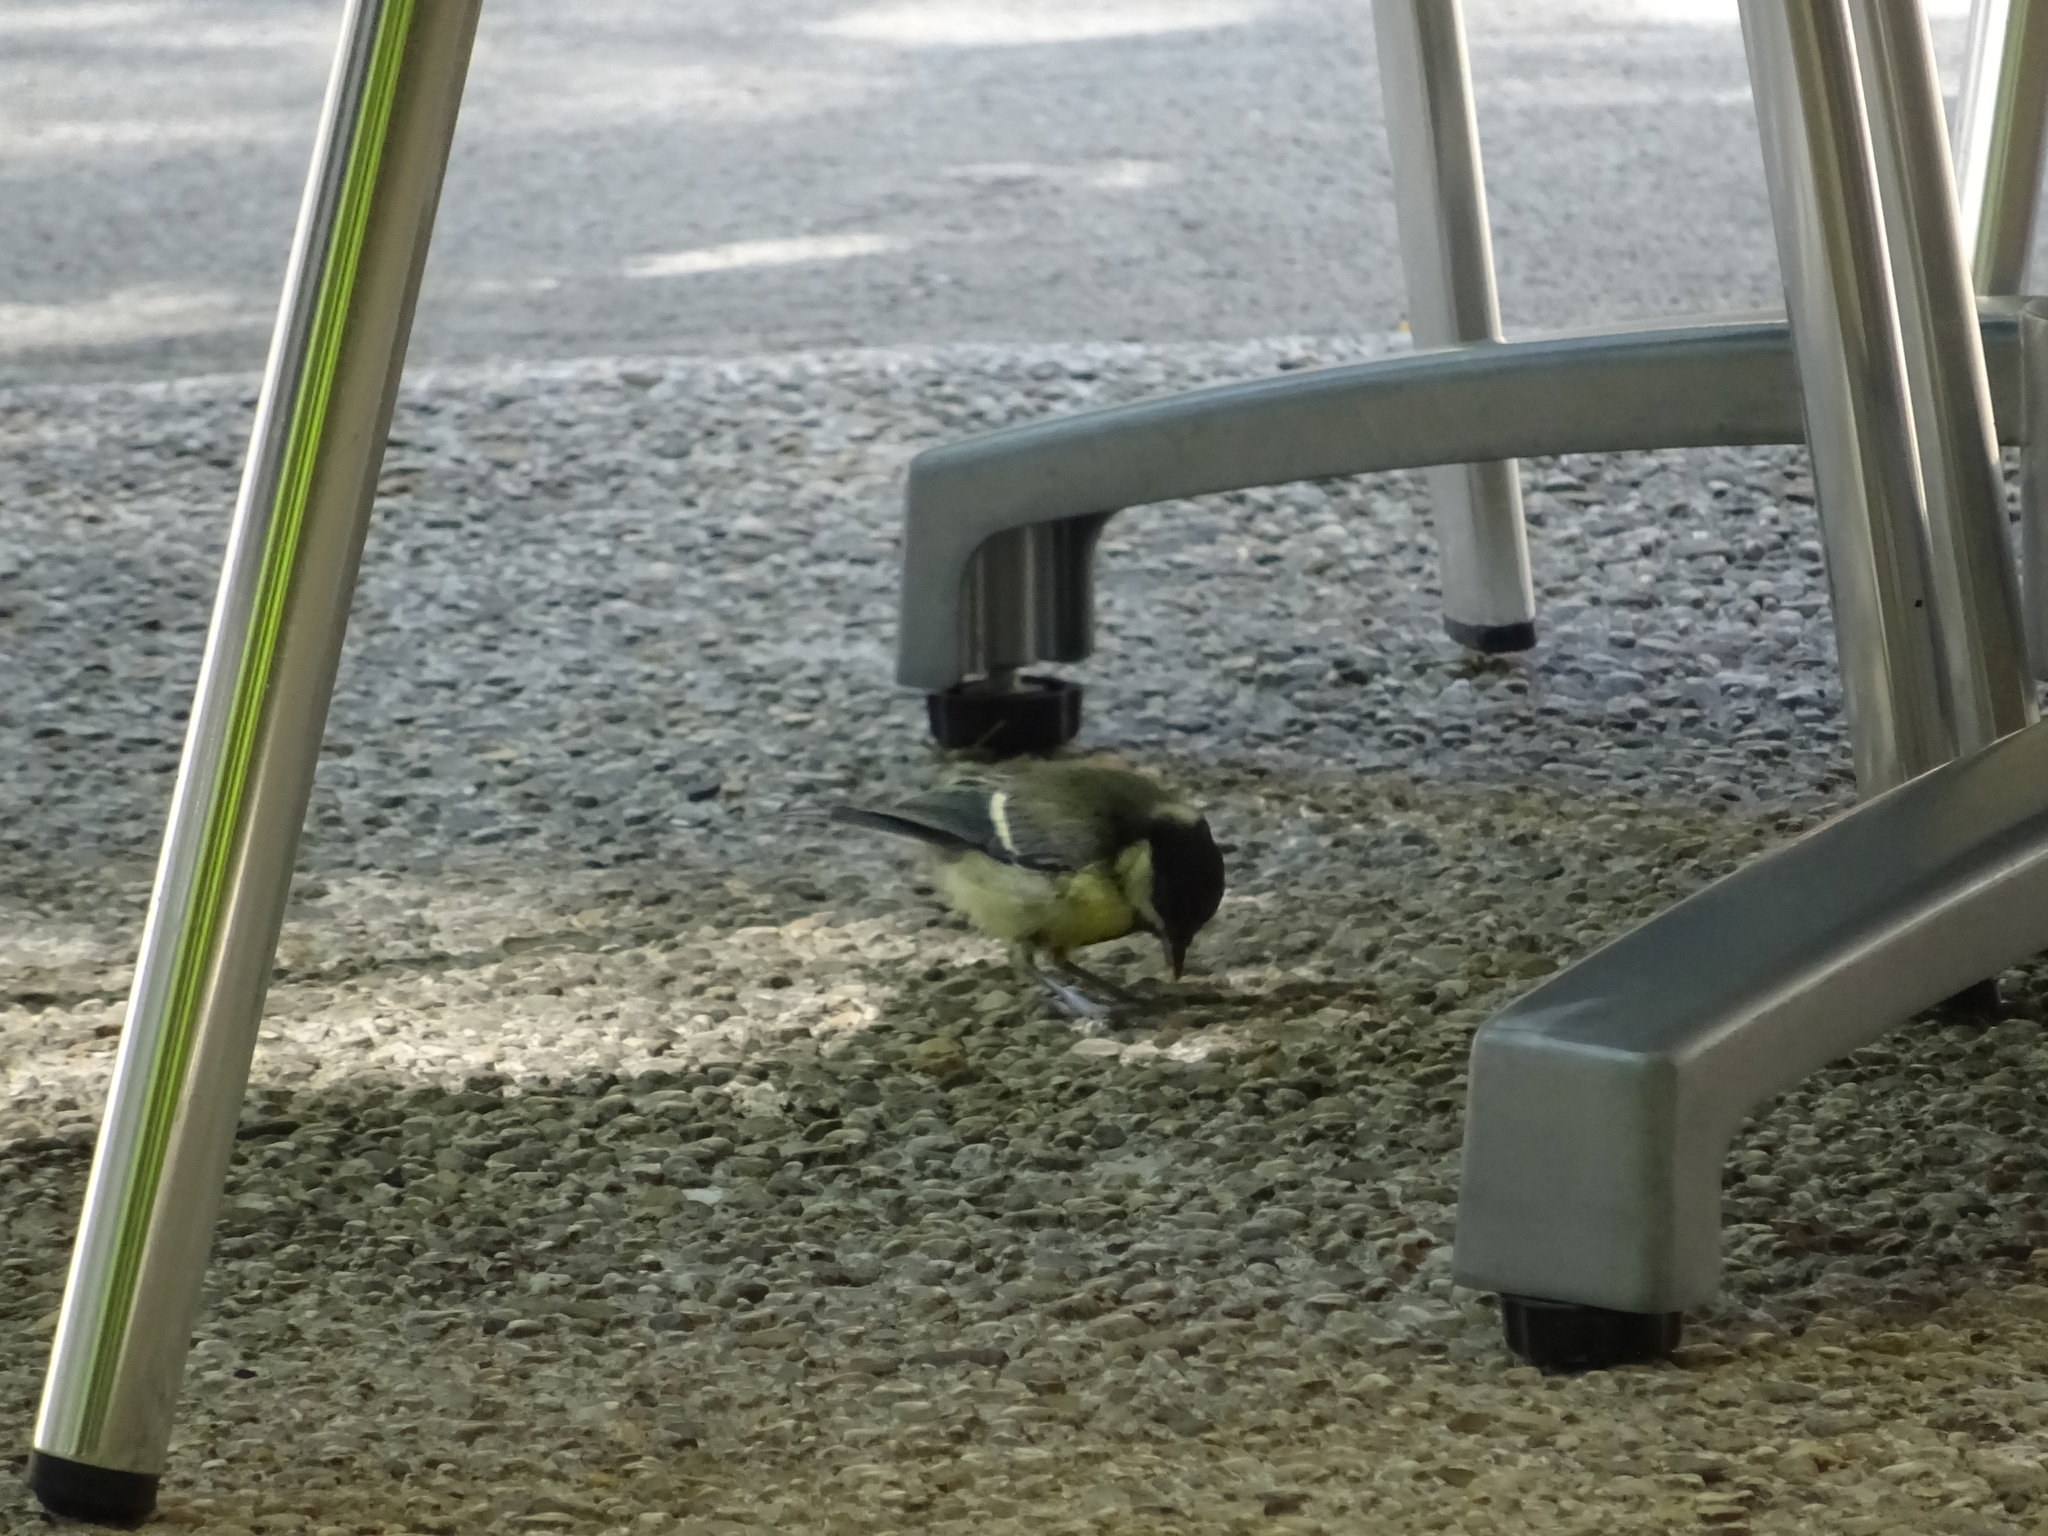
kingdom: Animalia
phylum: Chordata
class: Aves
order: Passeriformes
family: Paridae
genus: Parus
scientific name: Parus major
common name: Great tit
